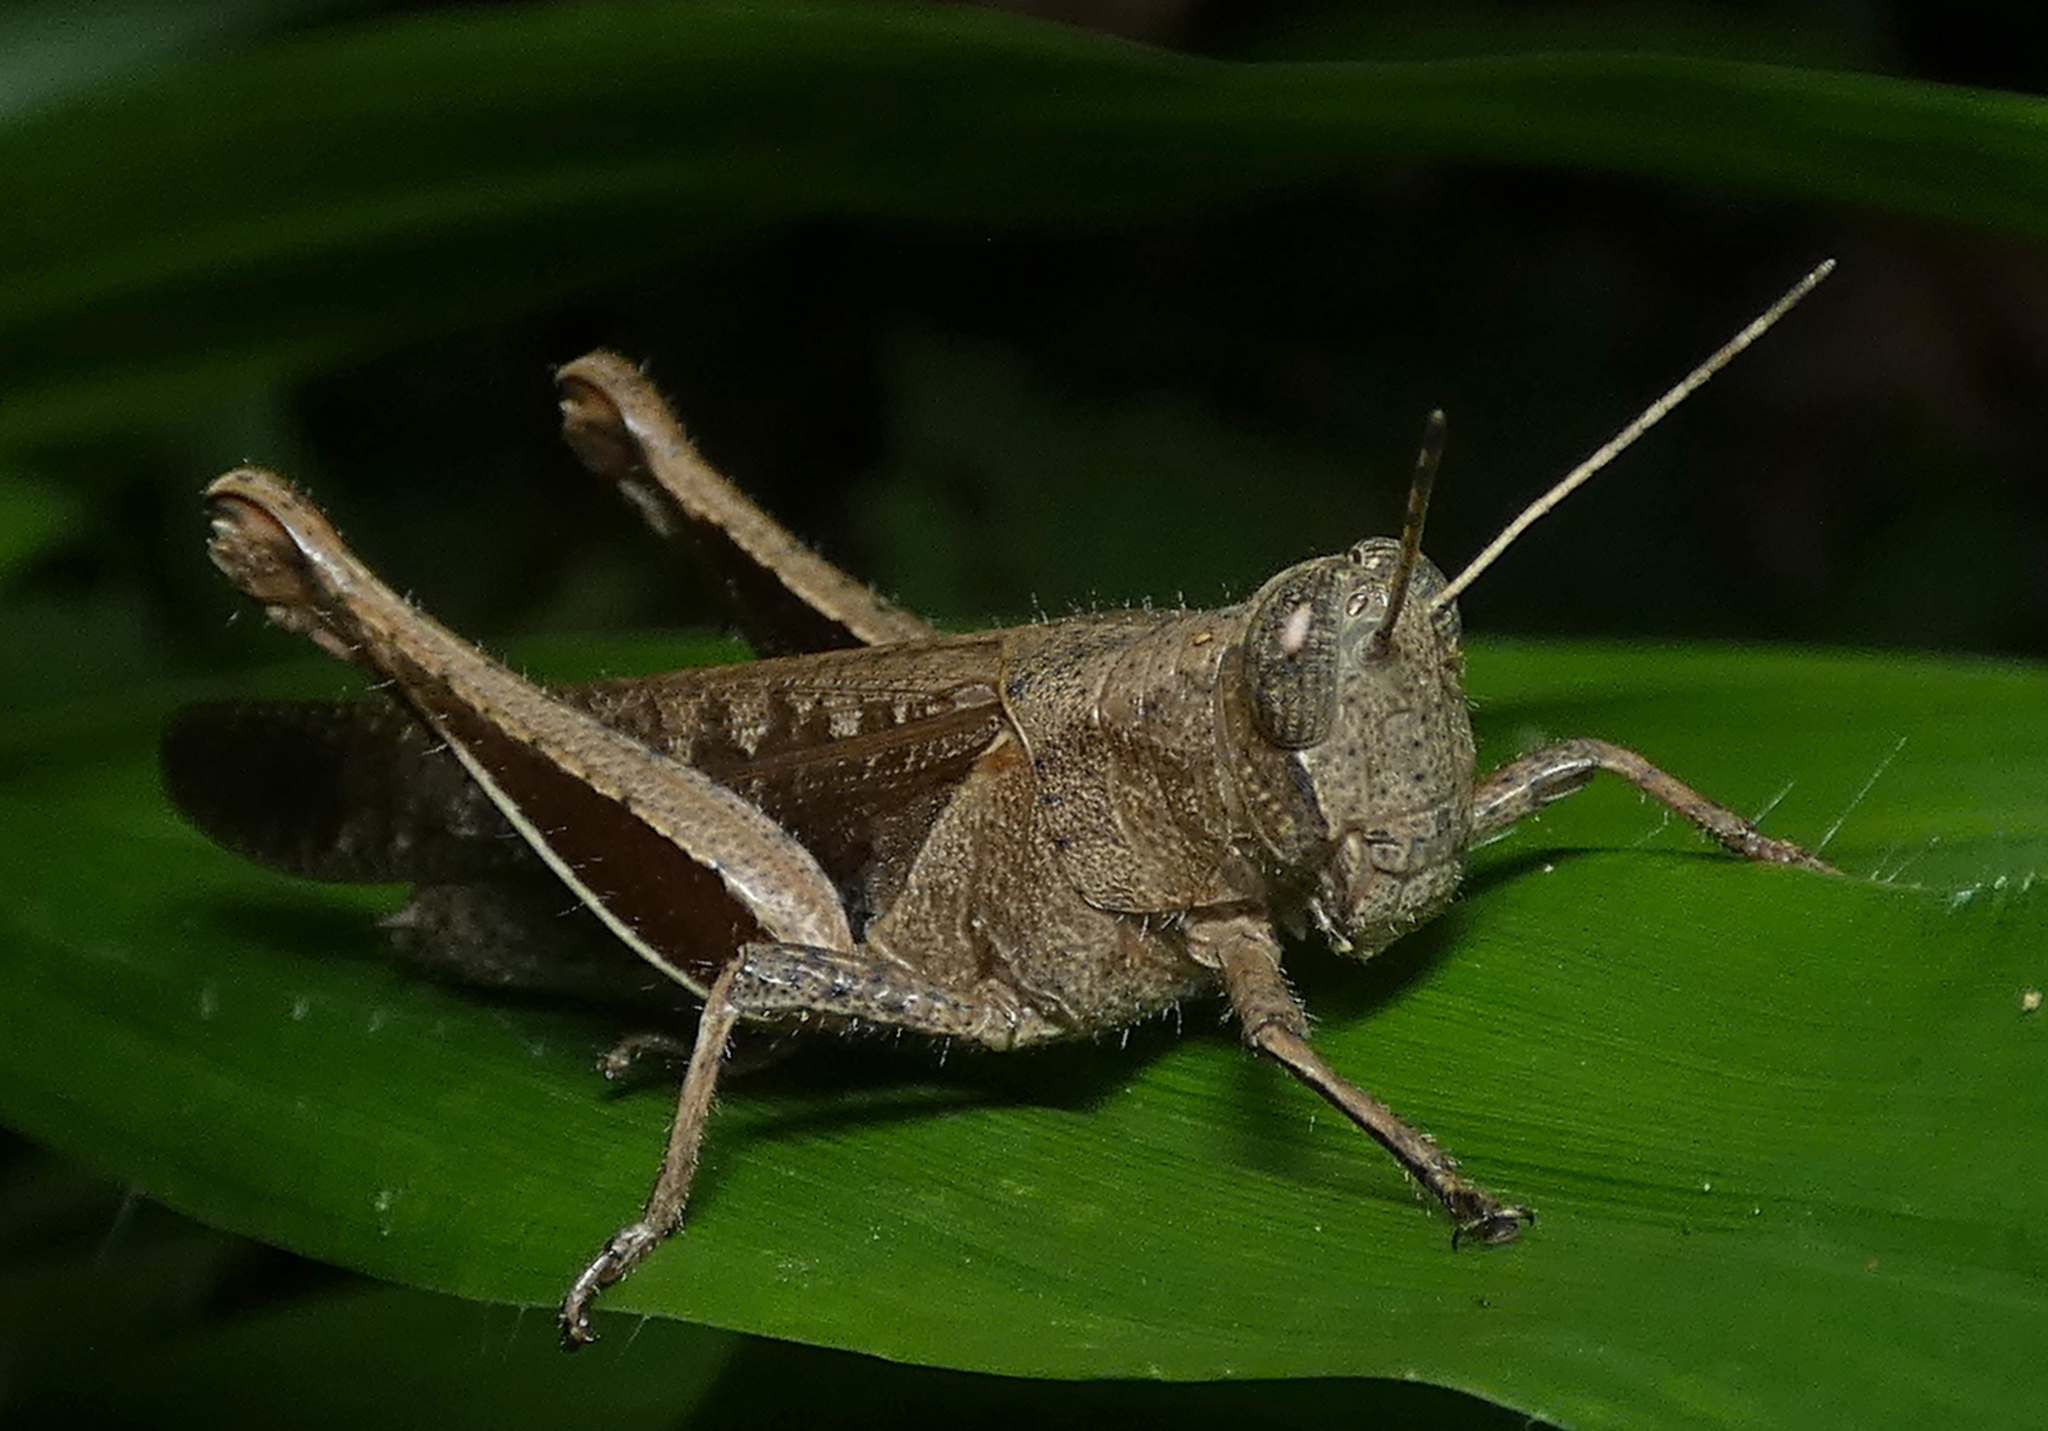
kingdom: Animalia
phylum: Arthropoda
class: Insecta
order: Orthoptera
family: Acrididae
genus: Abracris
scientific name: Abracris flavolineata
